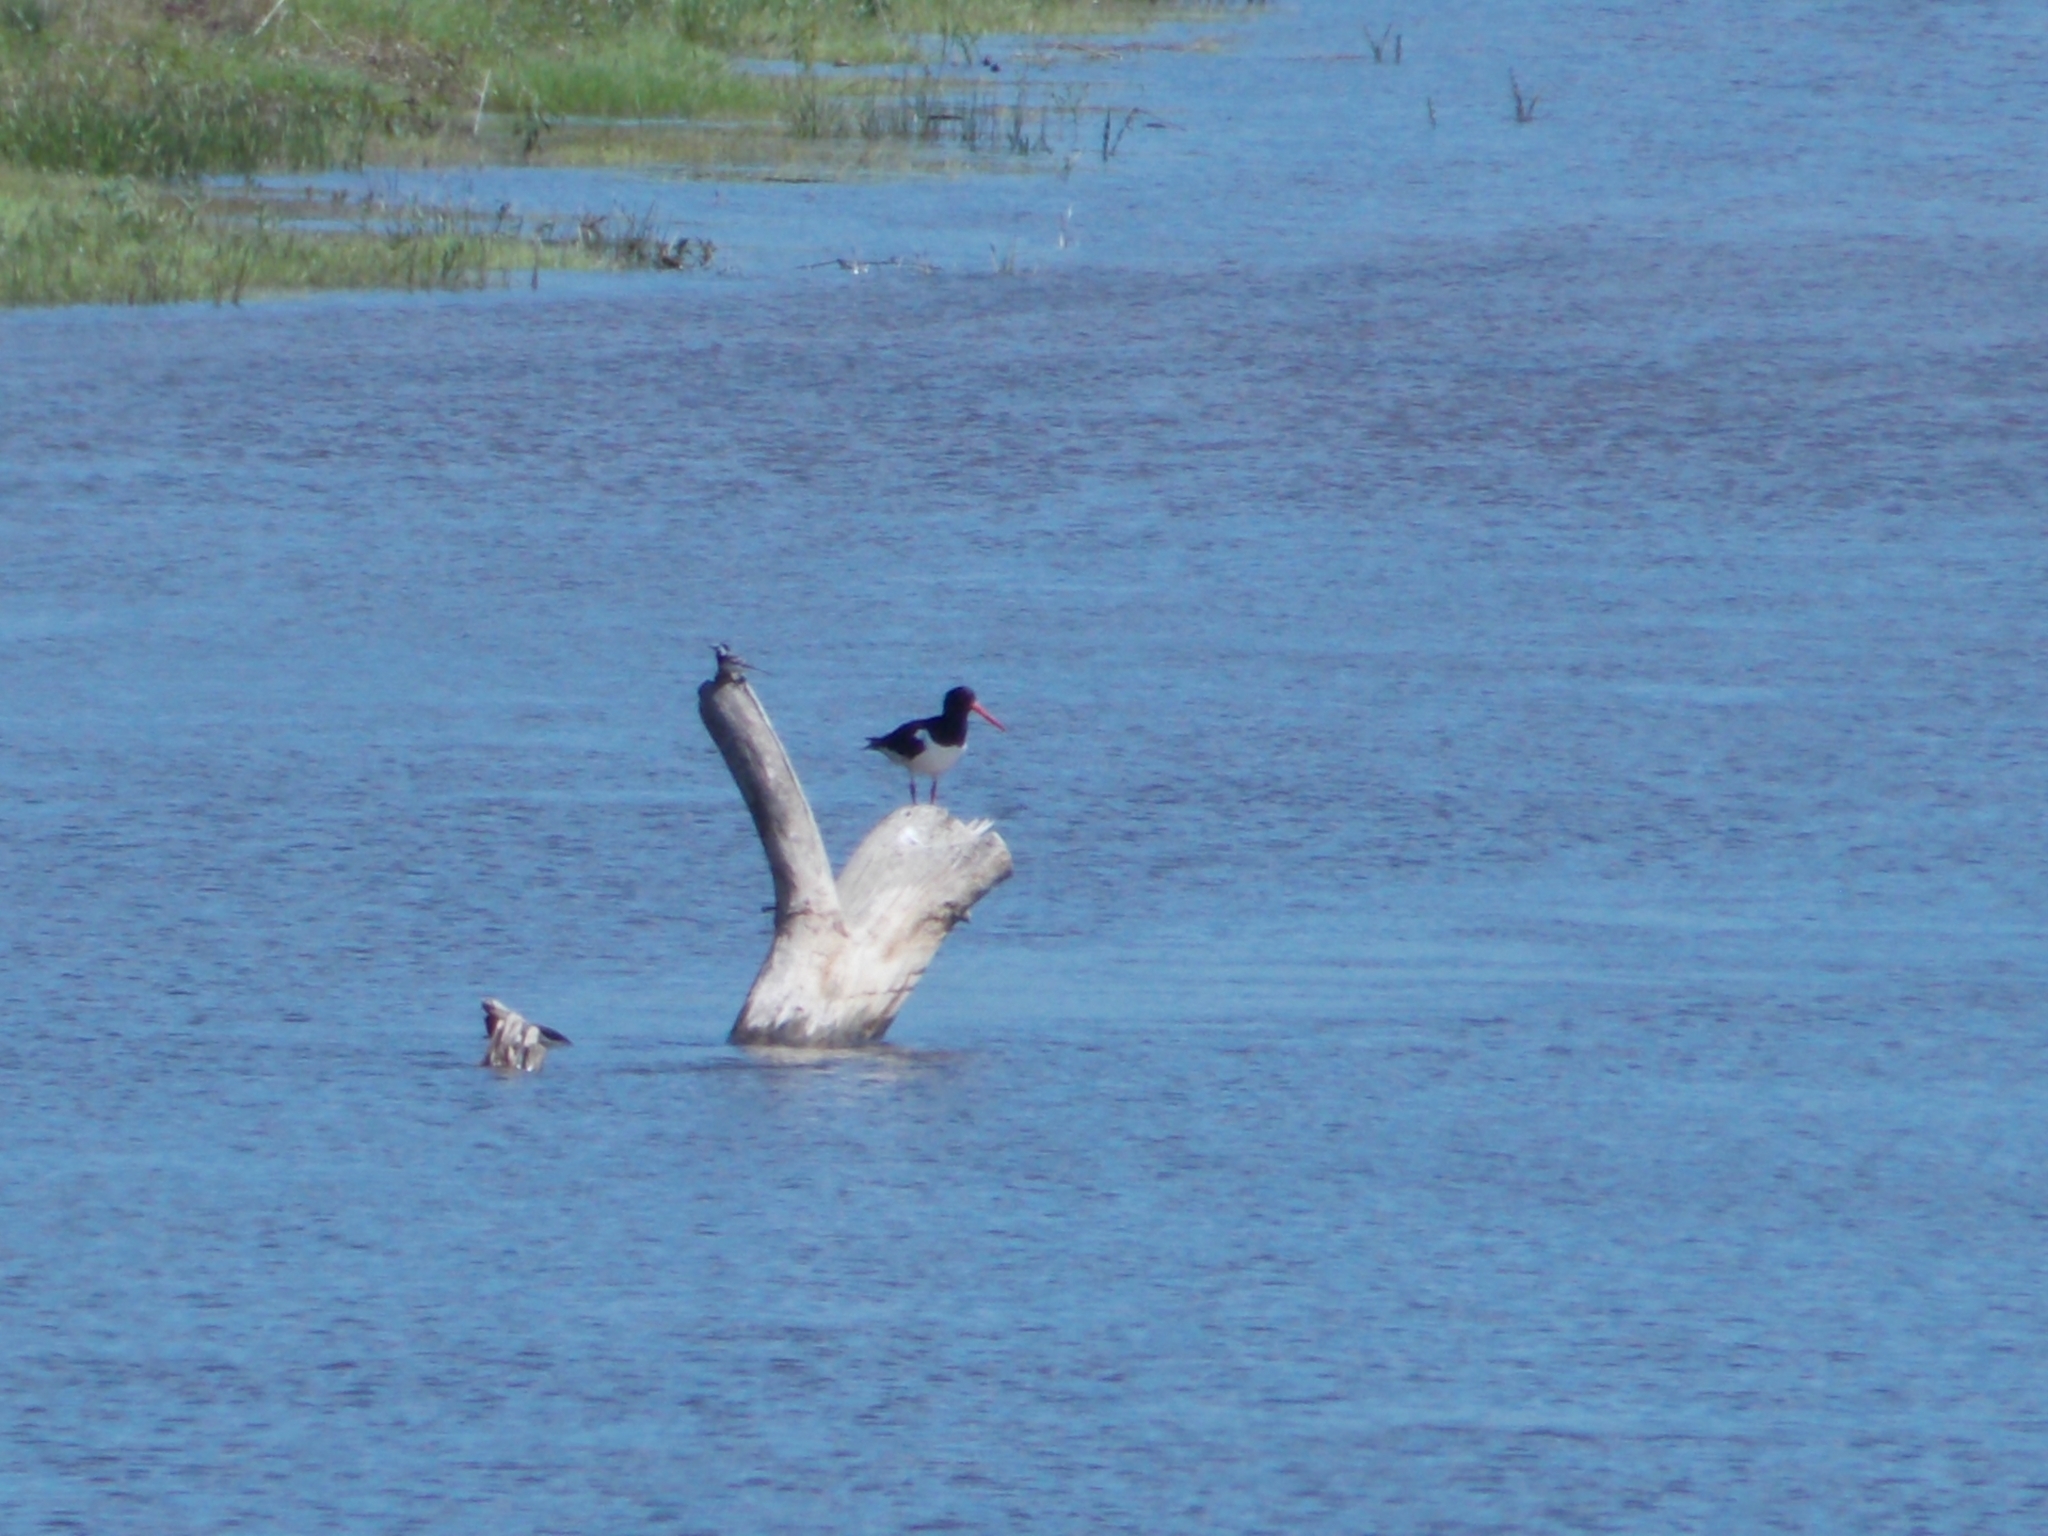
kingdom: Animalia
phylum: Chordata
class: Aves
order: Charadriiformes
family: Haematopodidae
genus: Haematopus
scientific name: Haematopus ostralegus
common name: Eurasian oystercatcher
